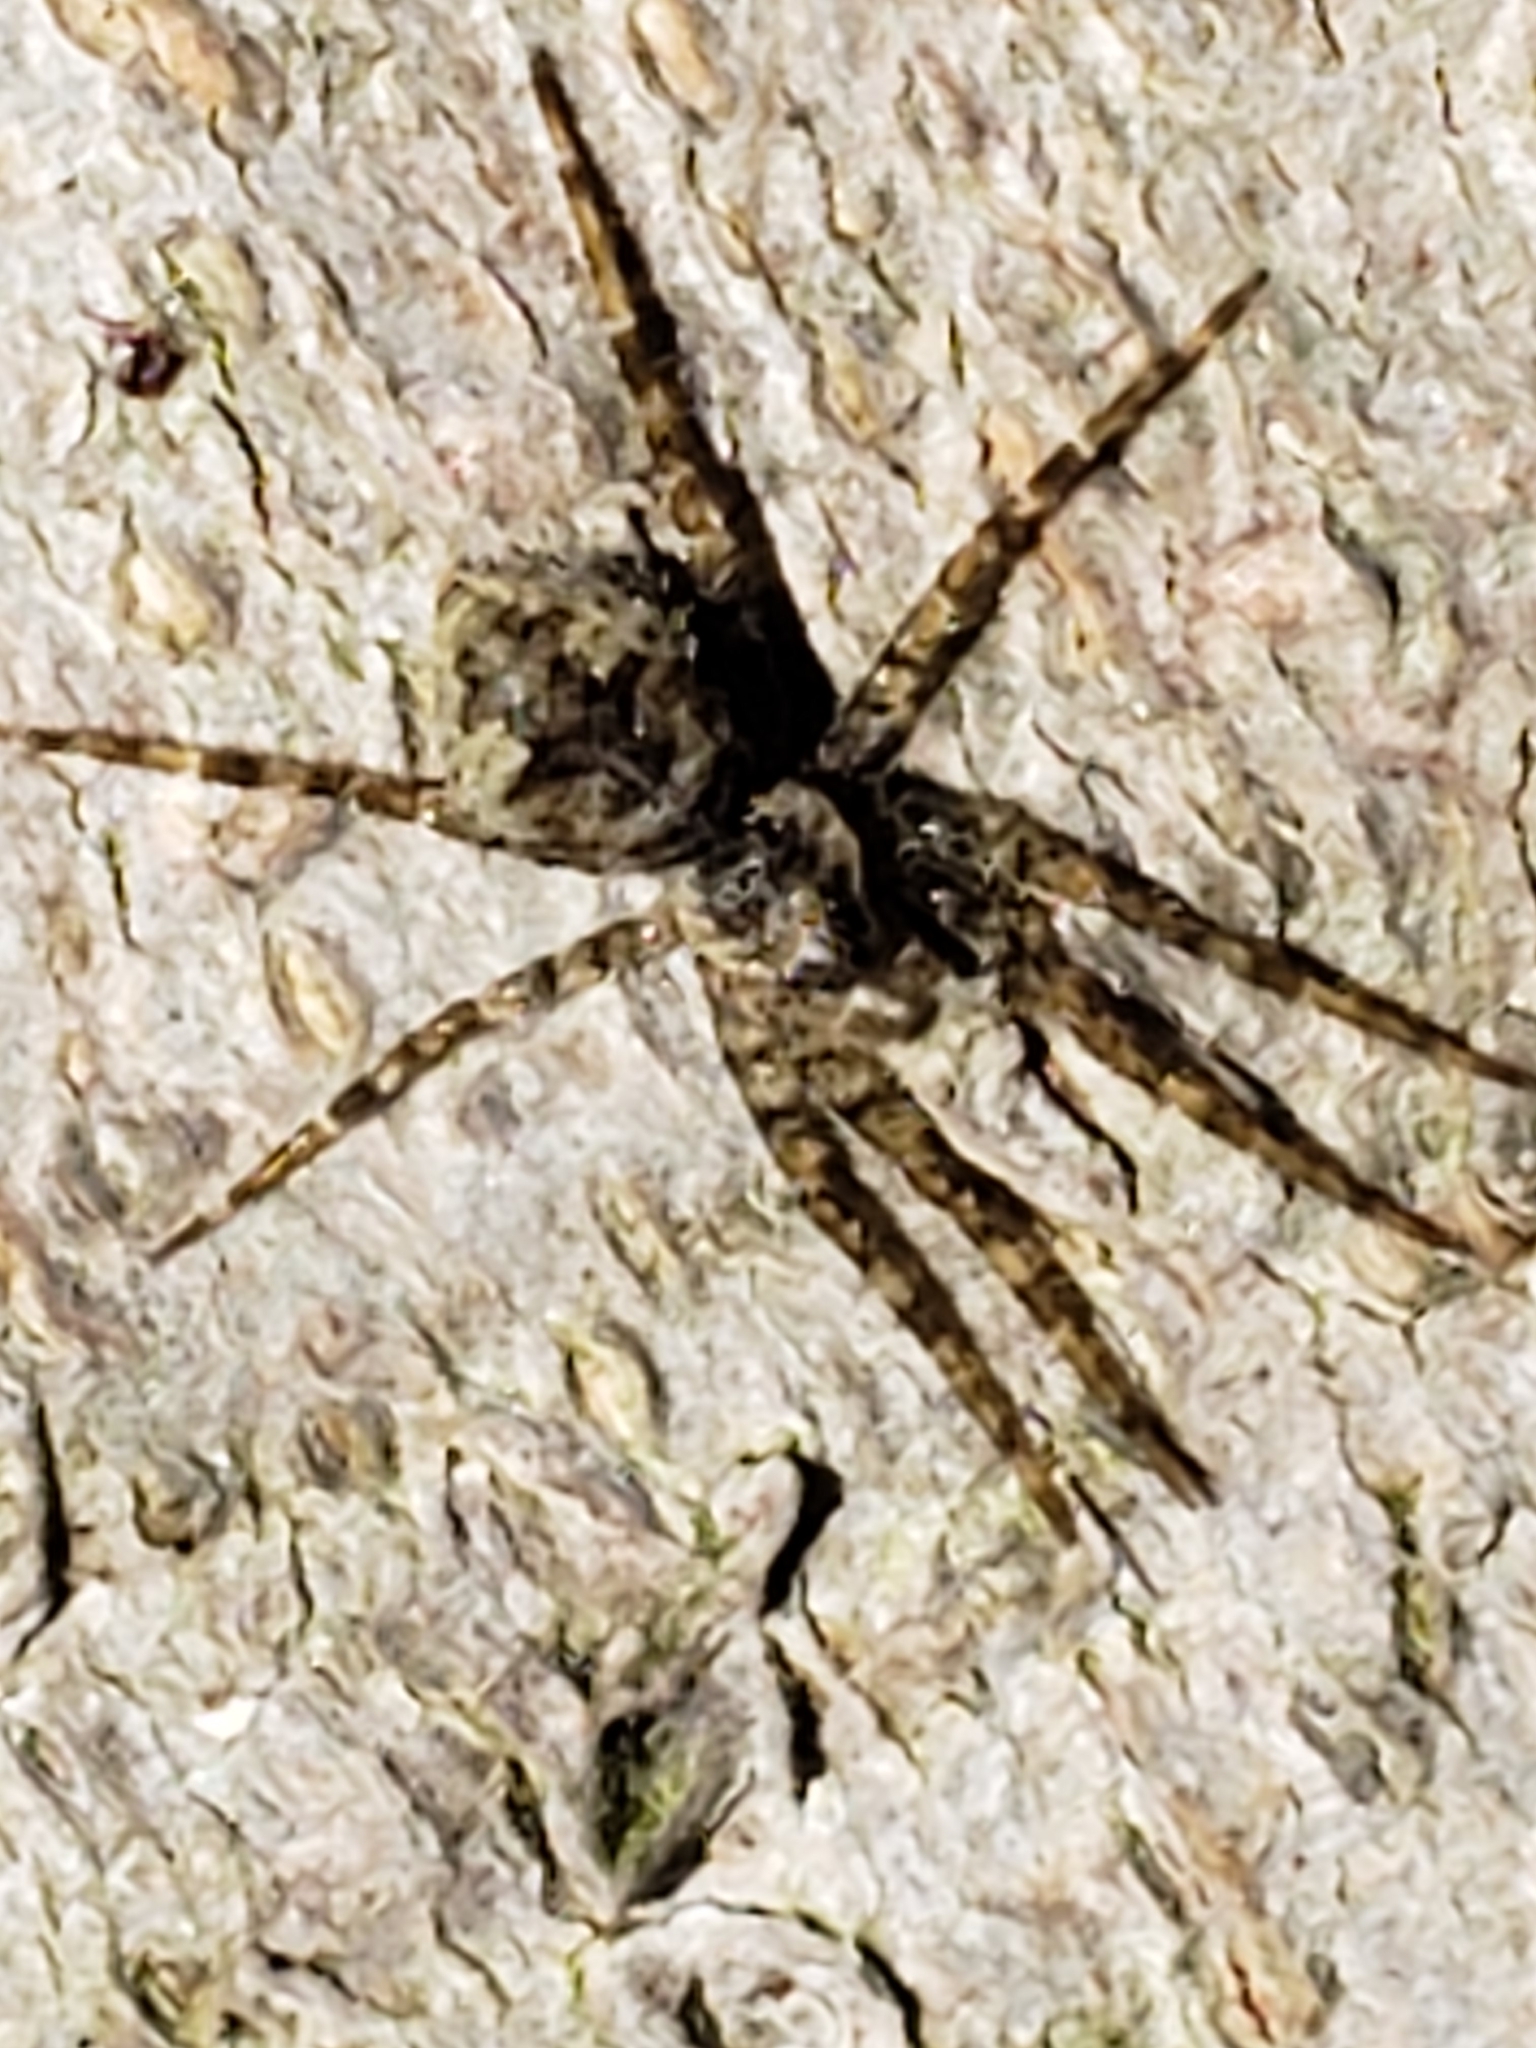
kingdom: Animalia
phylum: Arthropoda
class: Arachnida
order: Araneae
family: Pisauridae
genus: Dolomedes
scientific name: Dolomedes albineus
